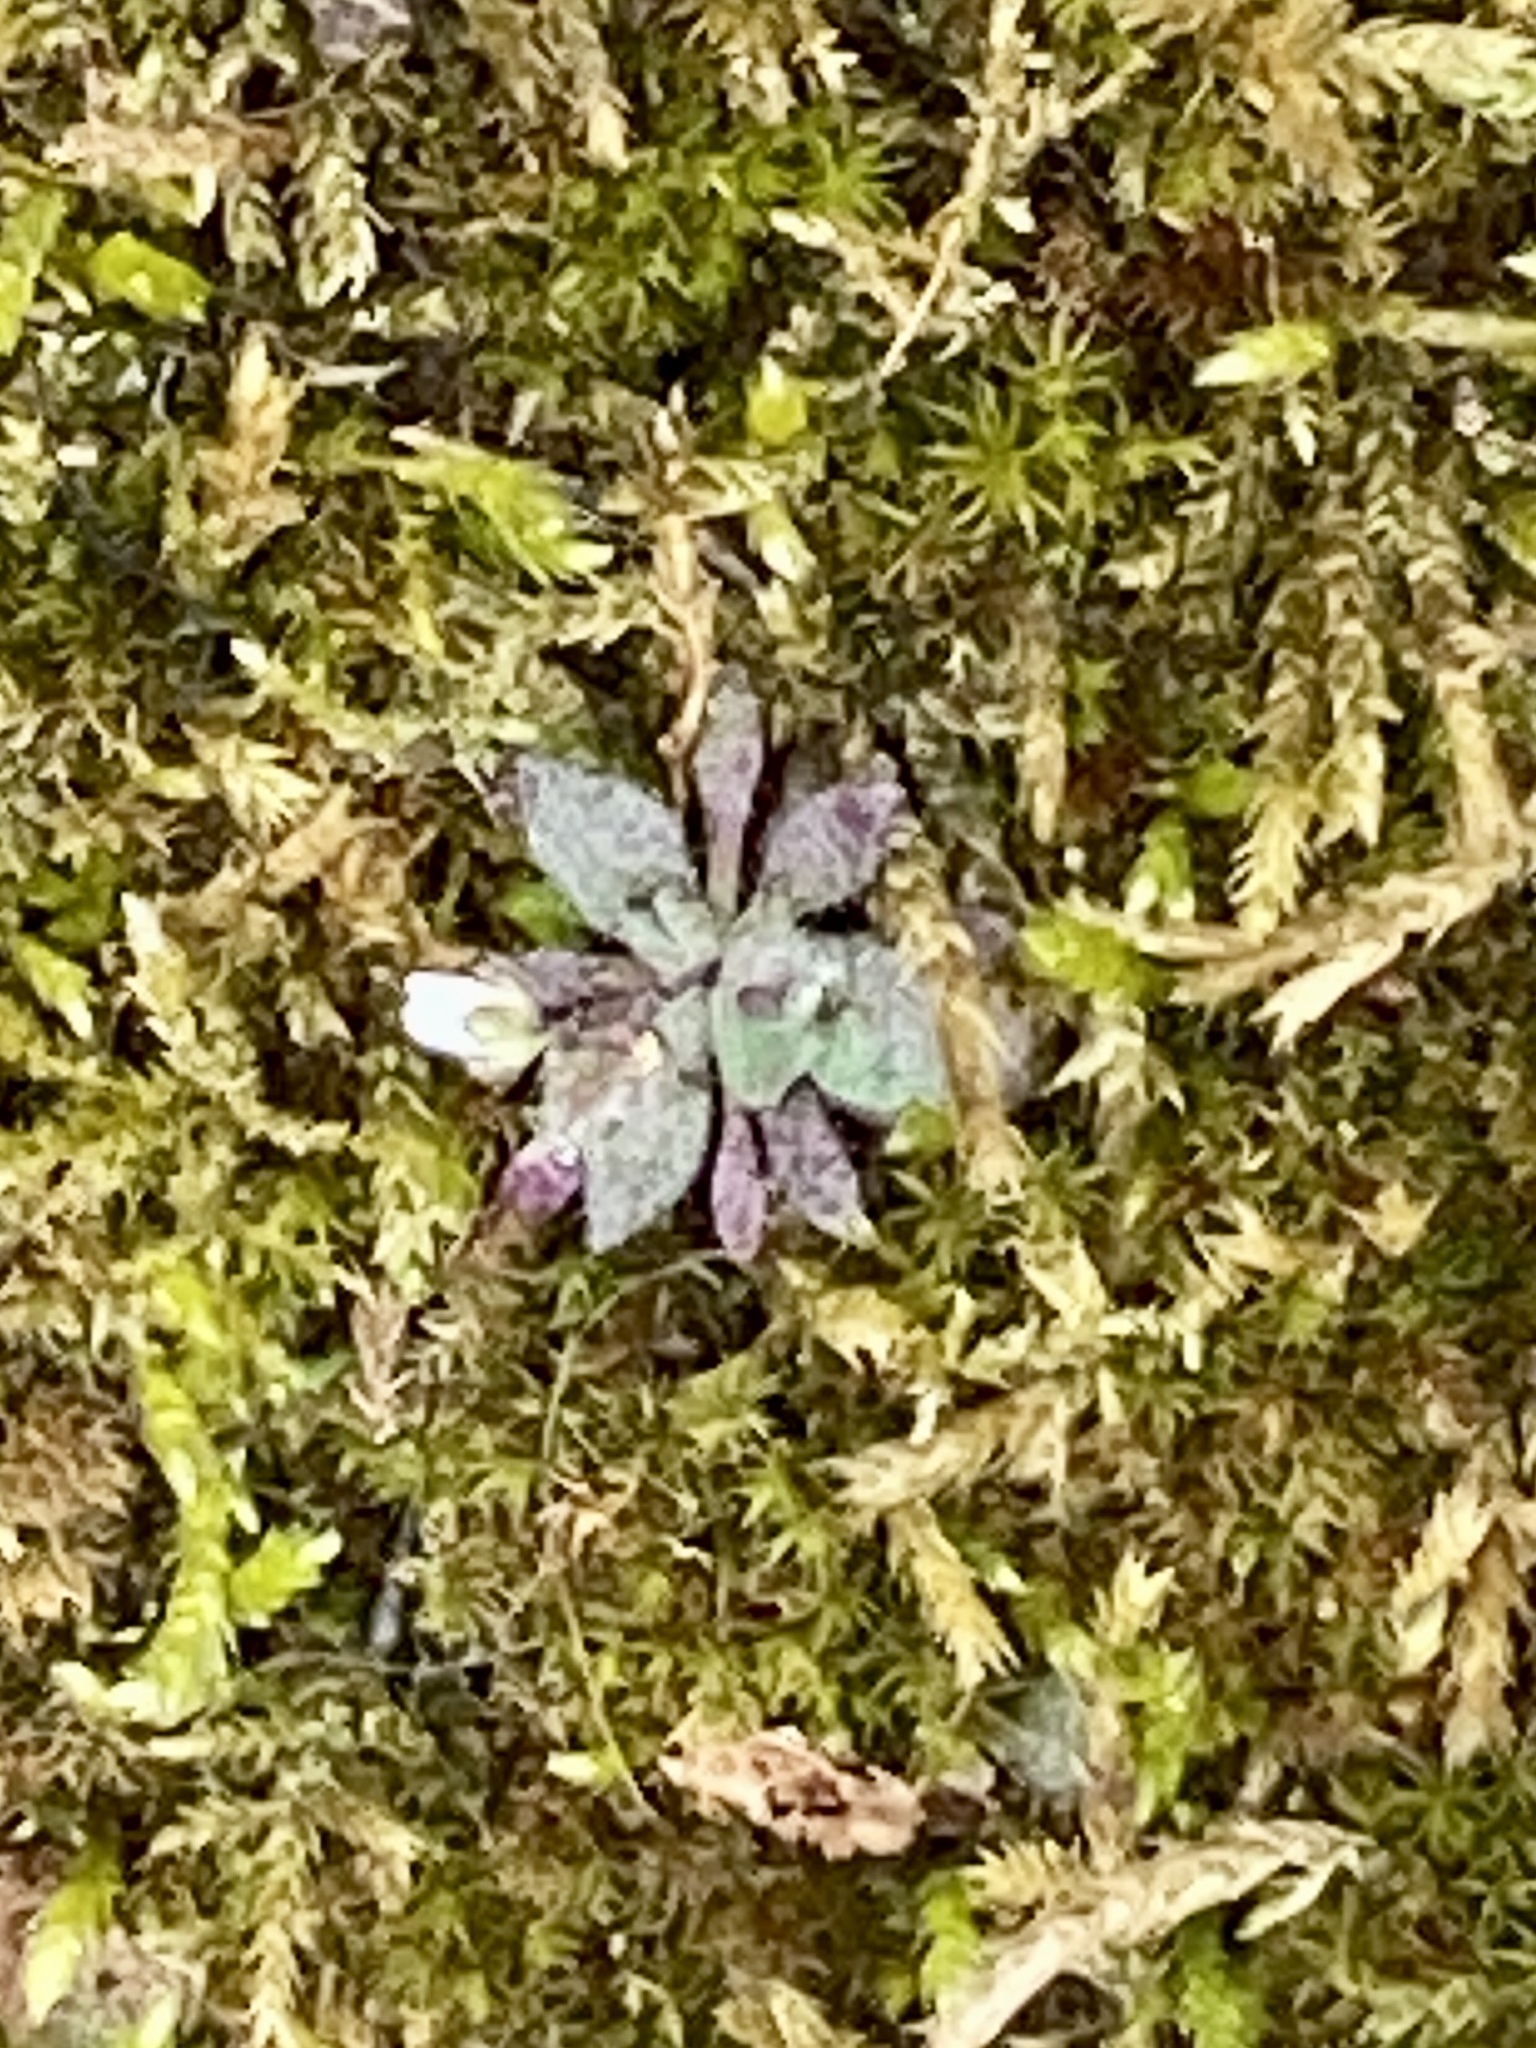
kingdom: Plantae
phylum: Tracheophyta
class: Magnoliopsida
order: Brassicales
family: Brassicaceae
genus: Draba
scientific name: Draba verna
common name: Spring draba
